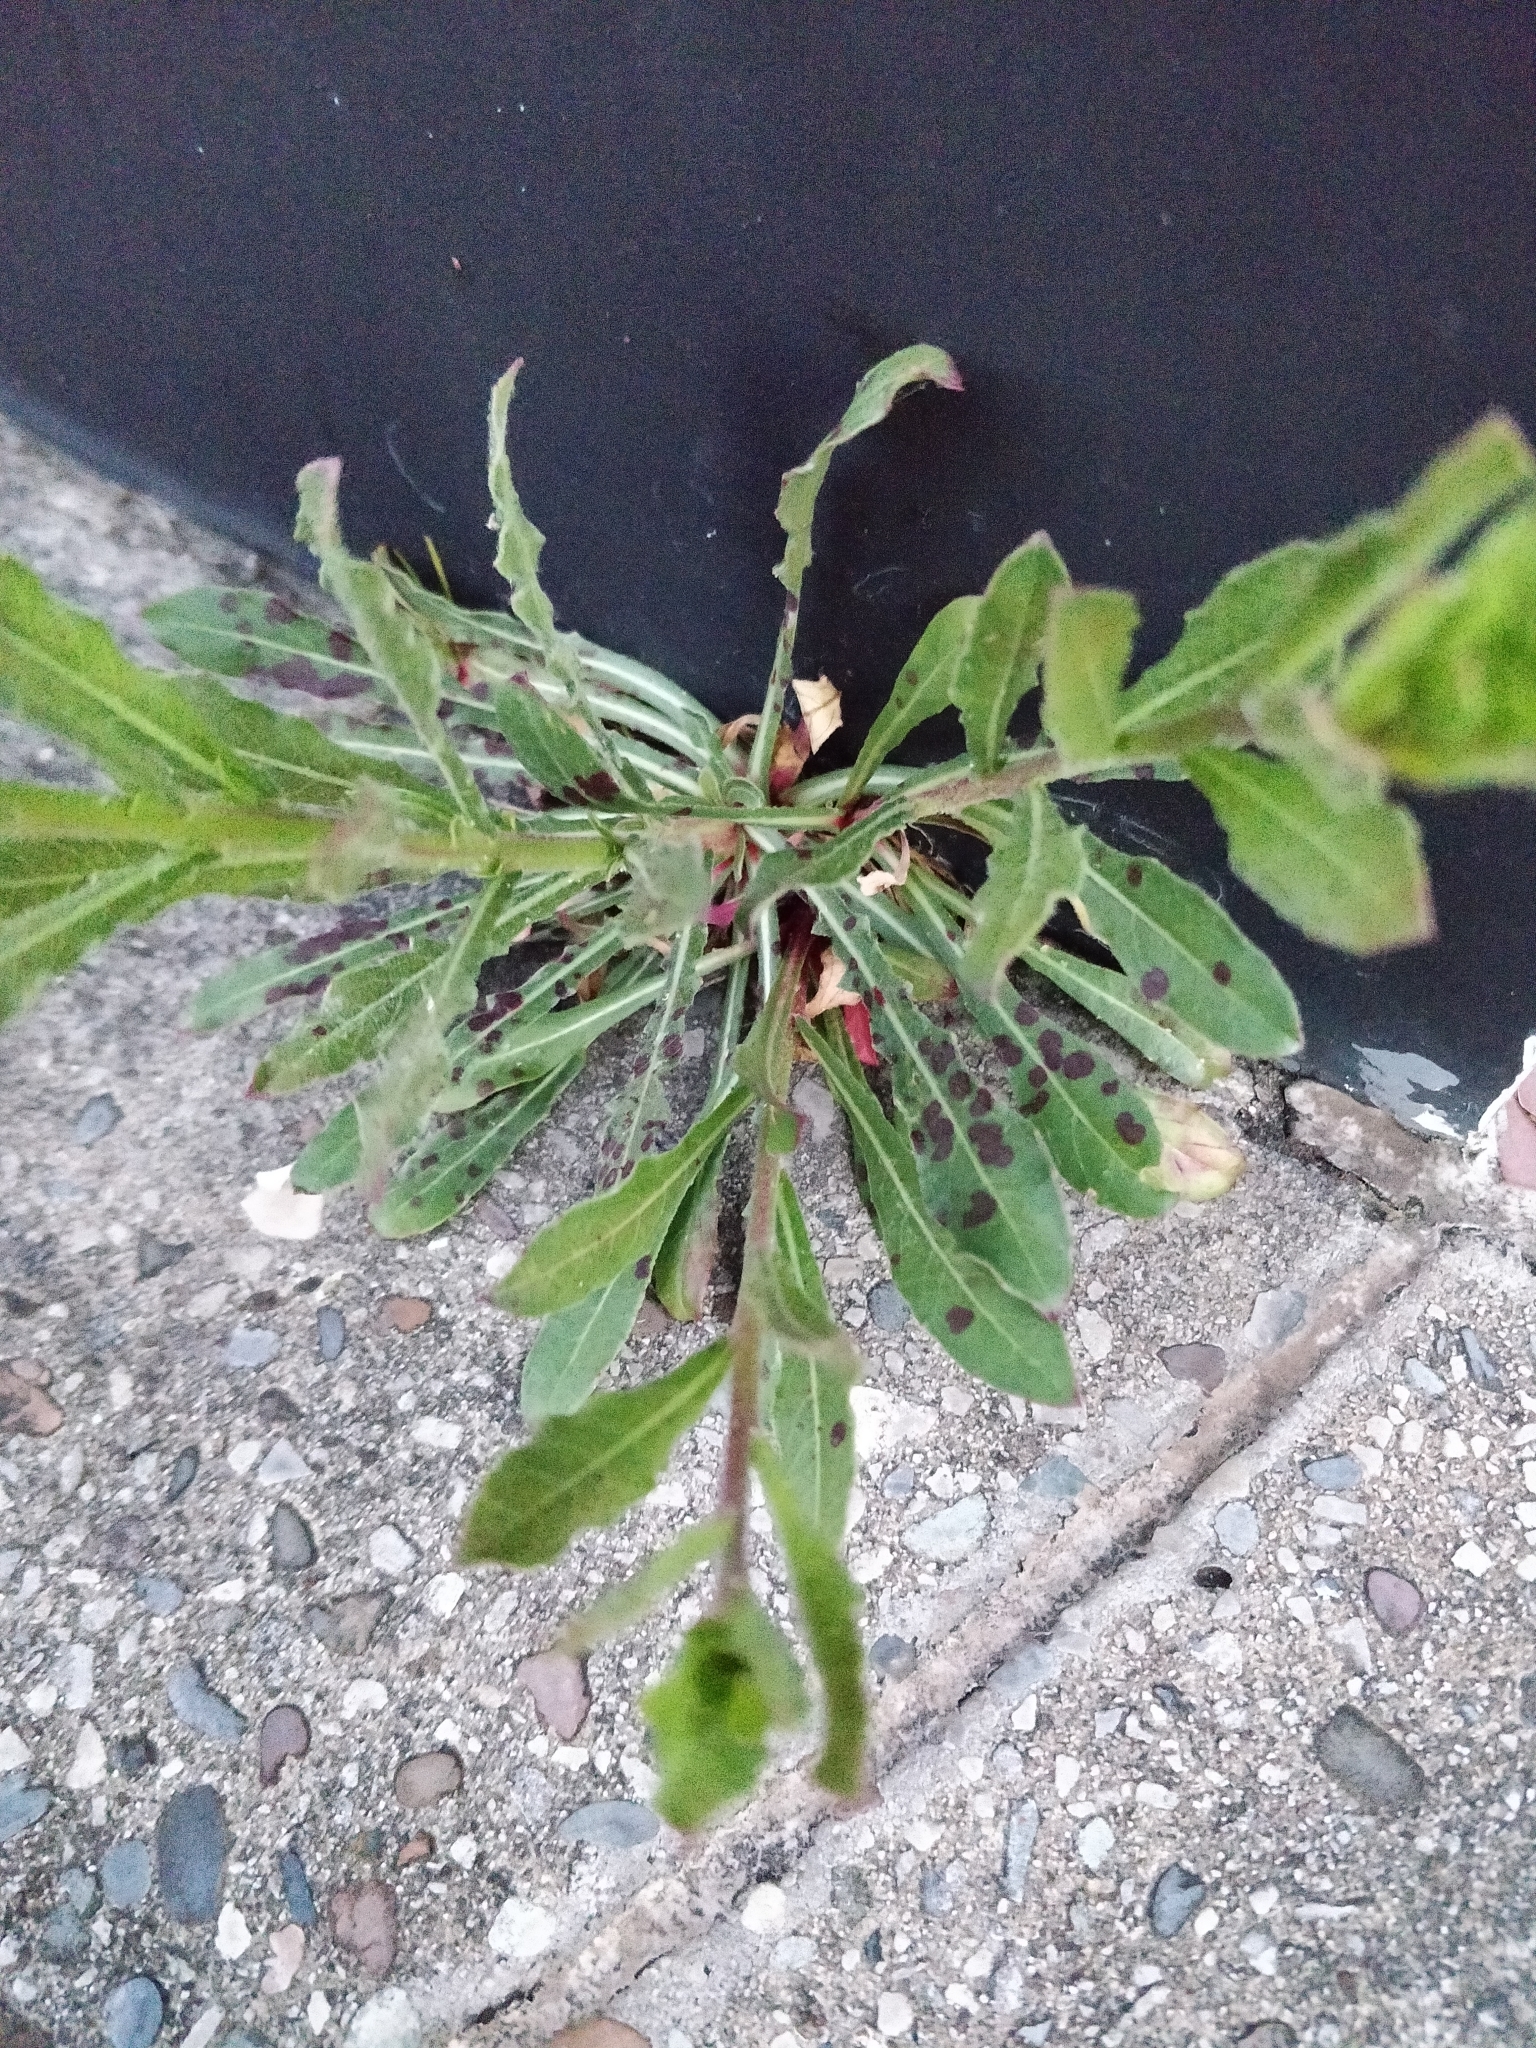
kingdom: Plantae
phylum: Tracheophyta
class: Magnoliopsida
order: Myrtales
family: Onagraceae
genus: Oenothera
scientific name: Oenothera lindheimeri
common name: Lindheimer's beeblossom
